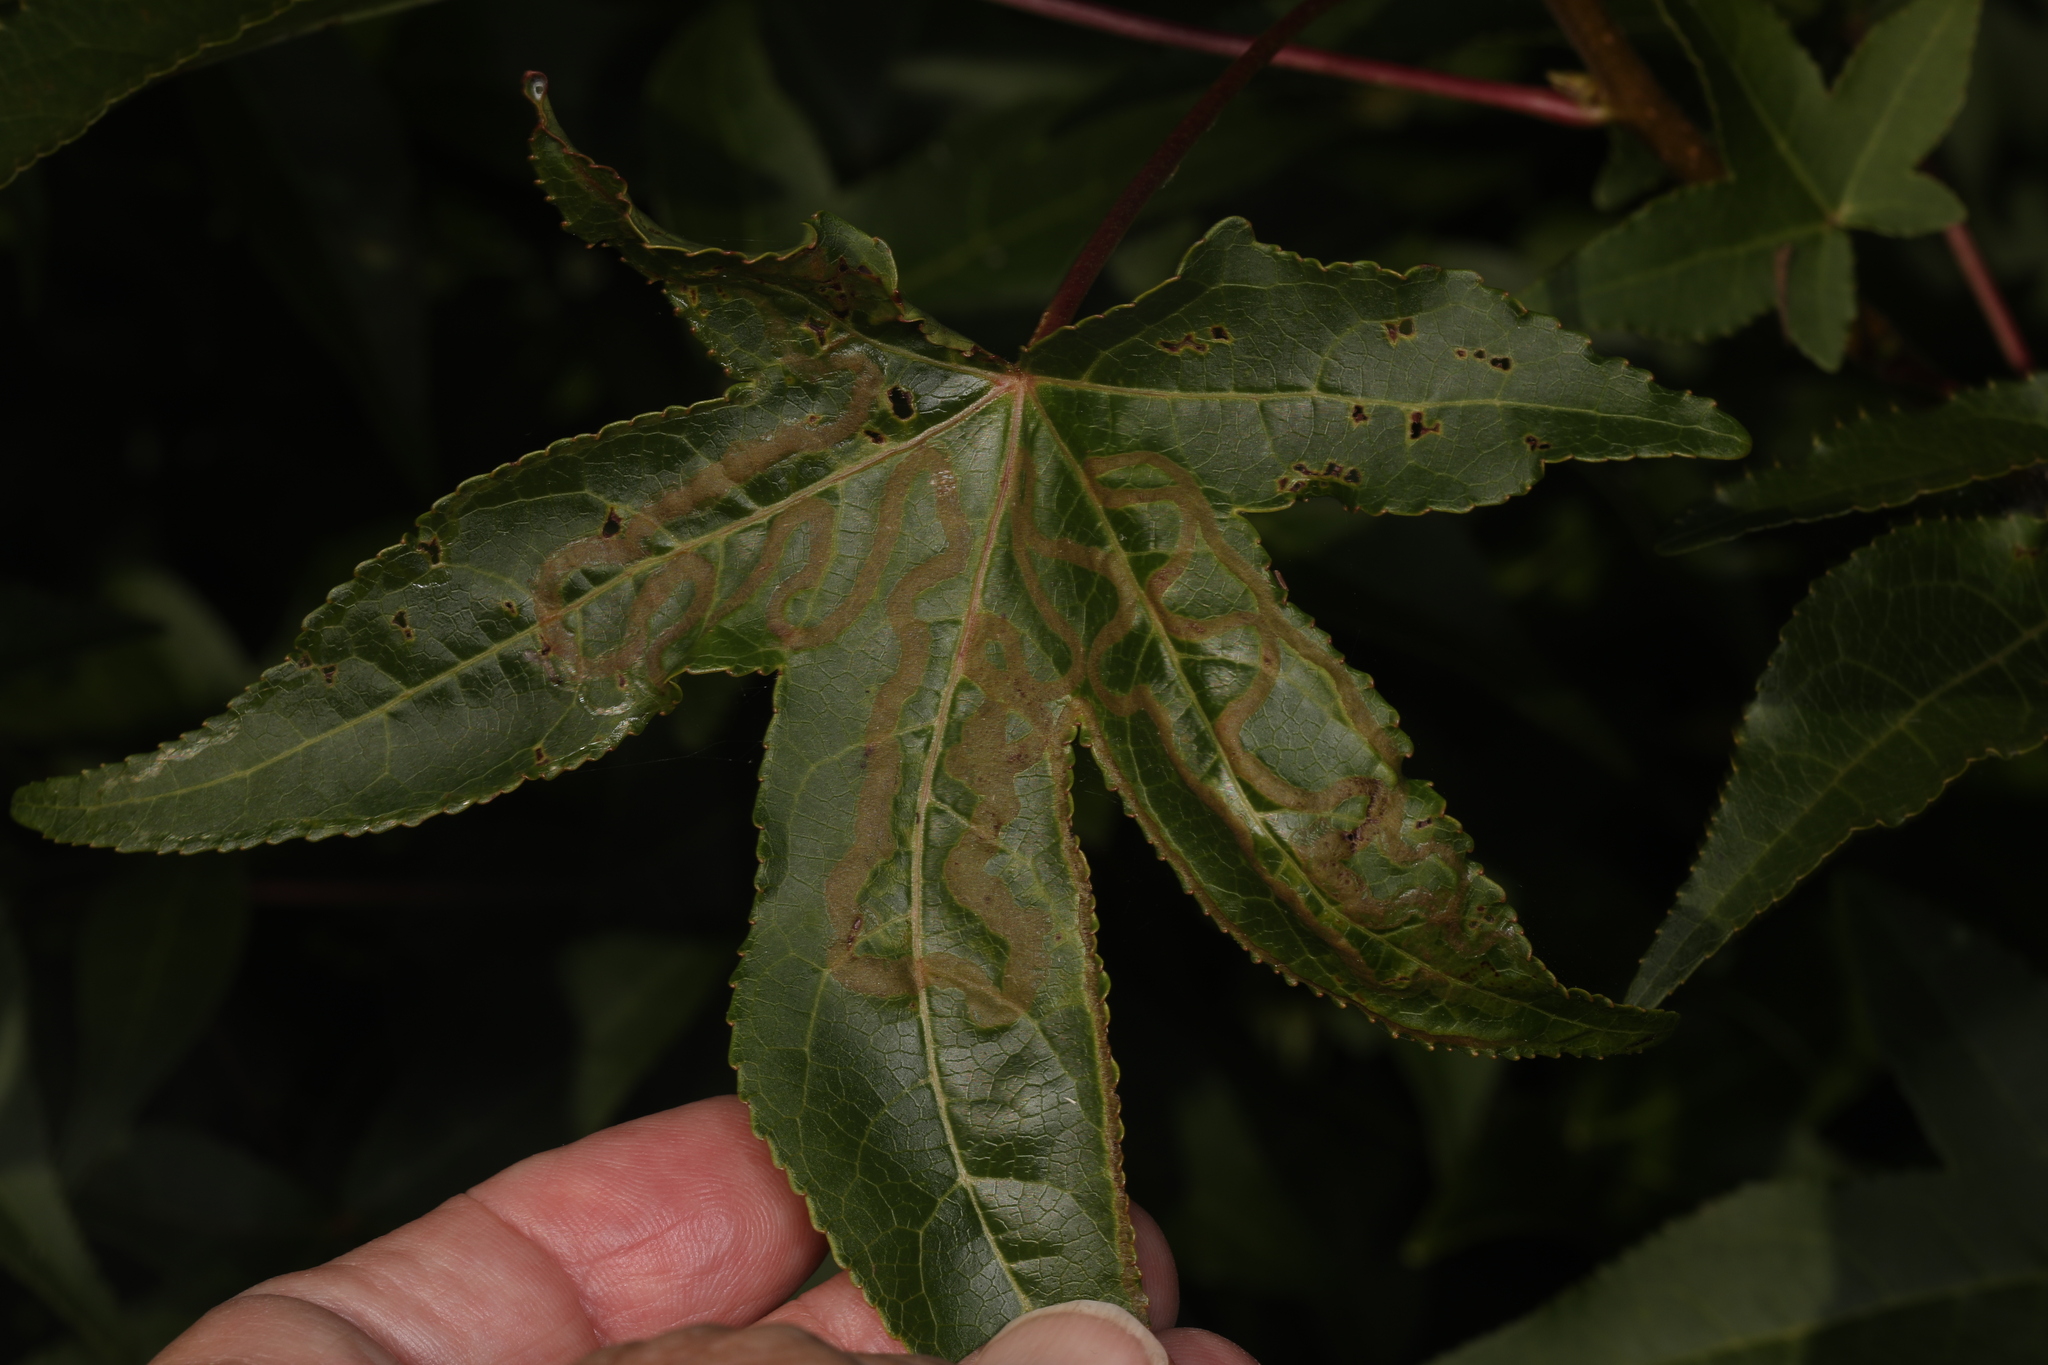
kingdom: Animalia
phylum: Arthropoda
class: Insecta
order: Lepidoptera
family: Gracillariidae
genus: Phyllocnistis
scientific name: Phyllocnistis liquidambarisella
